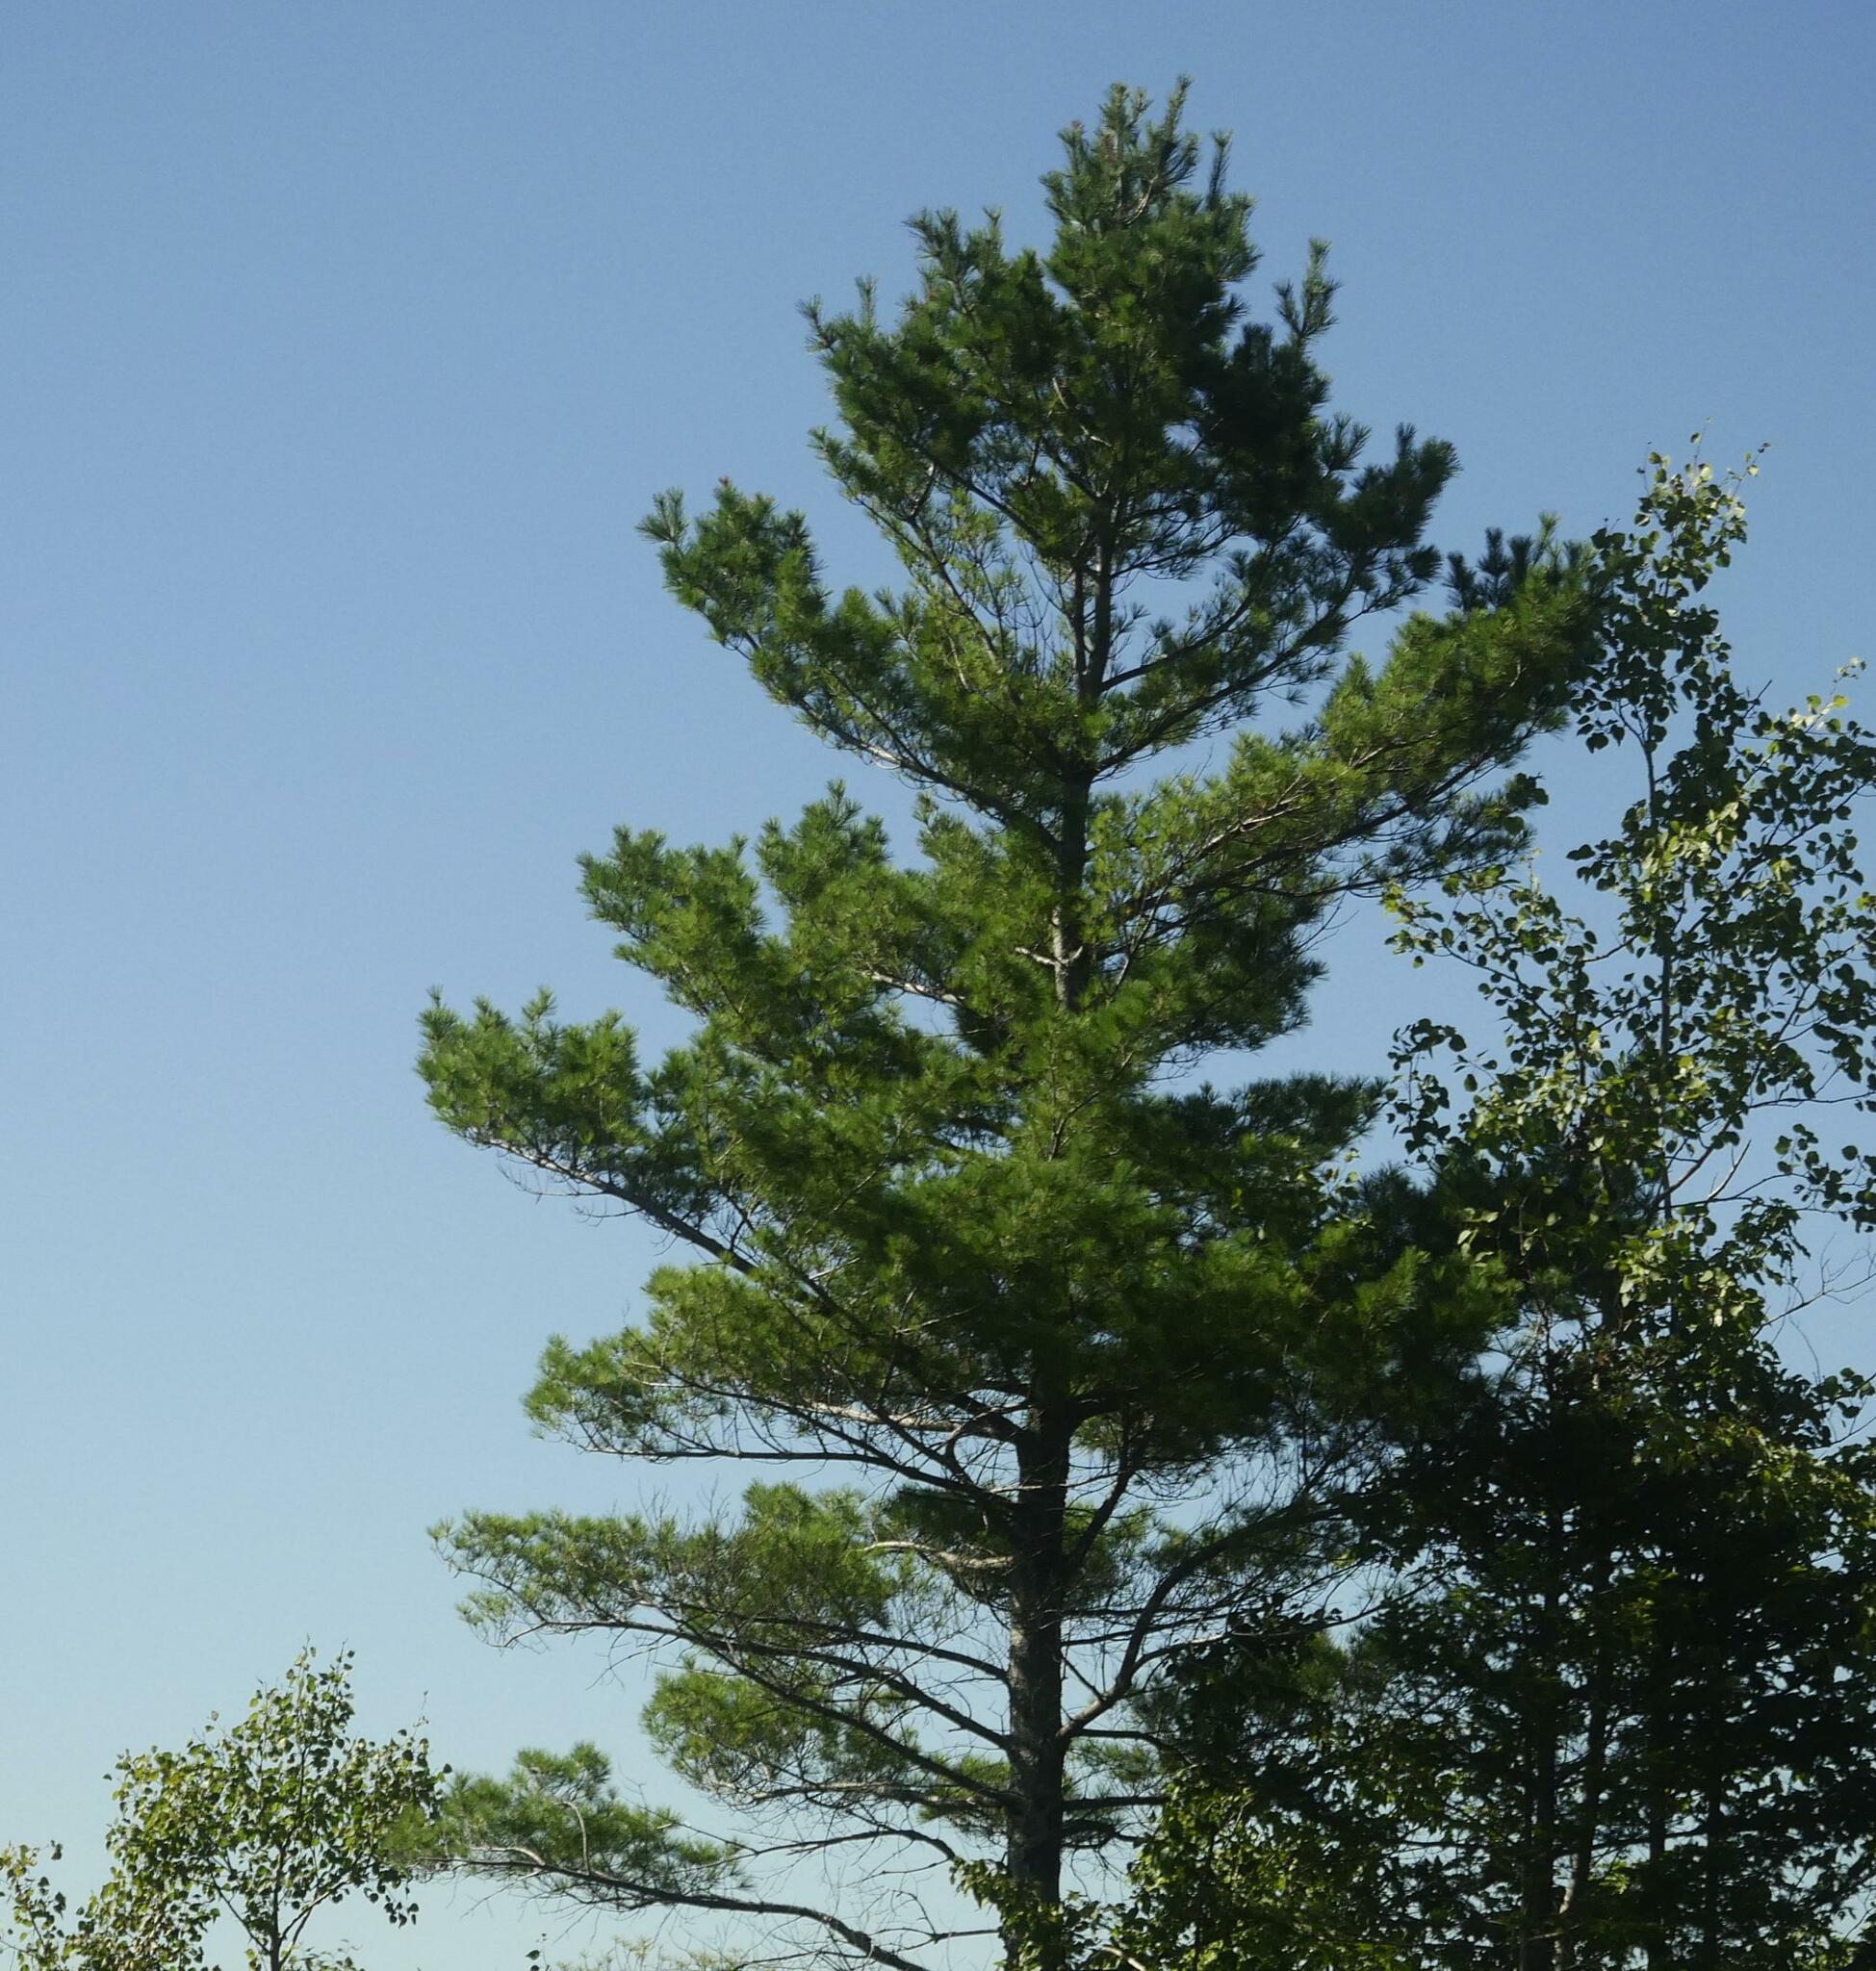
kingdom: Plantae
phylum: Tracheophyta
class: Pinopsida
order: Pinales
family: Pinaceae
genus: Pinus
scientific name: Pinus strobus
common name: Weymouth pine
